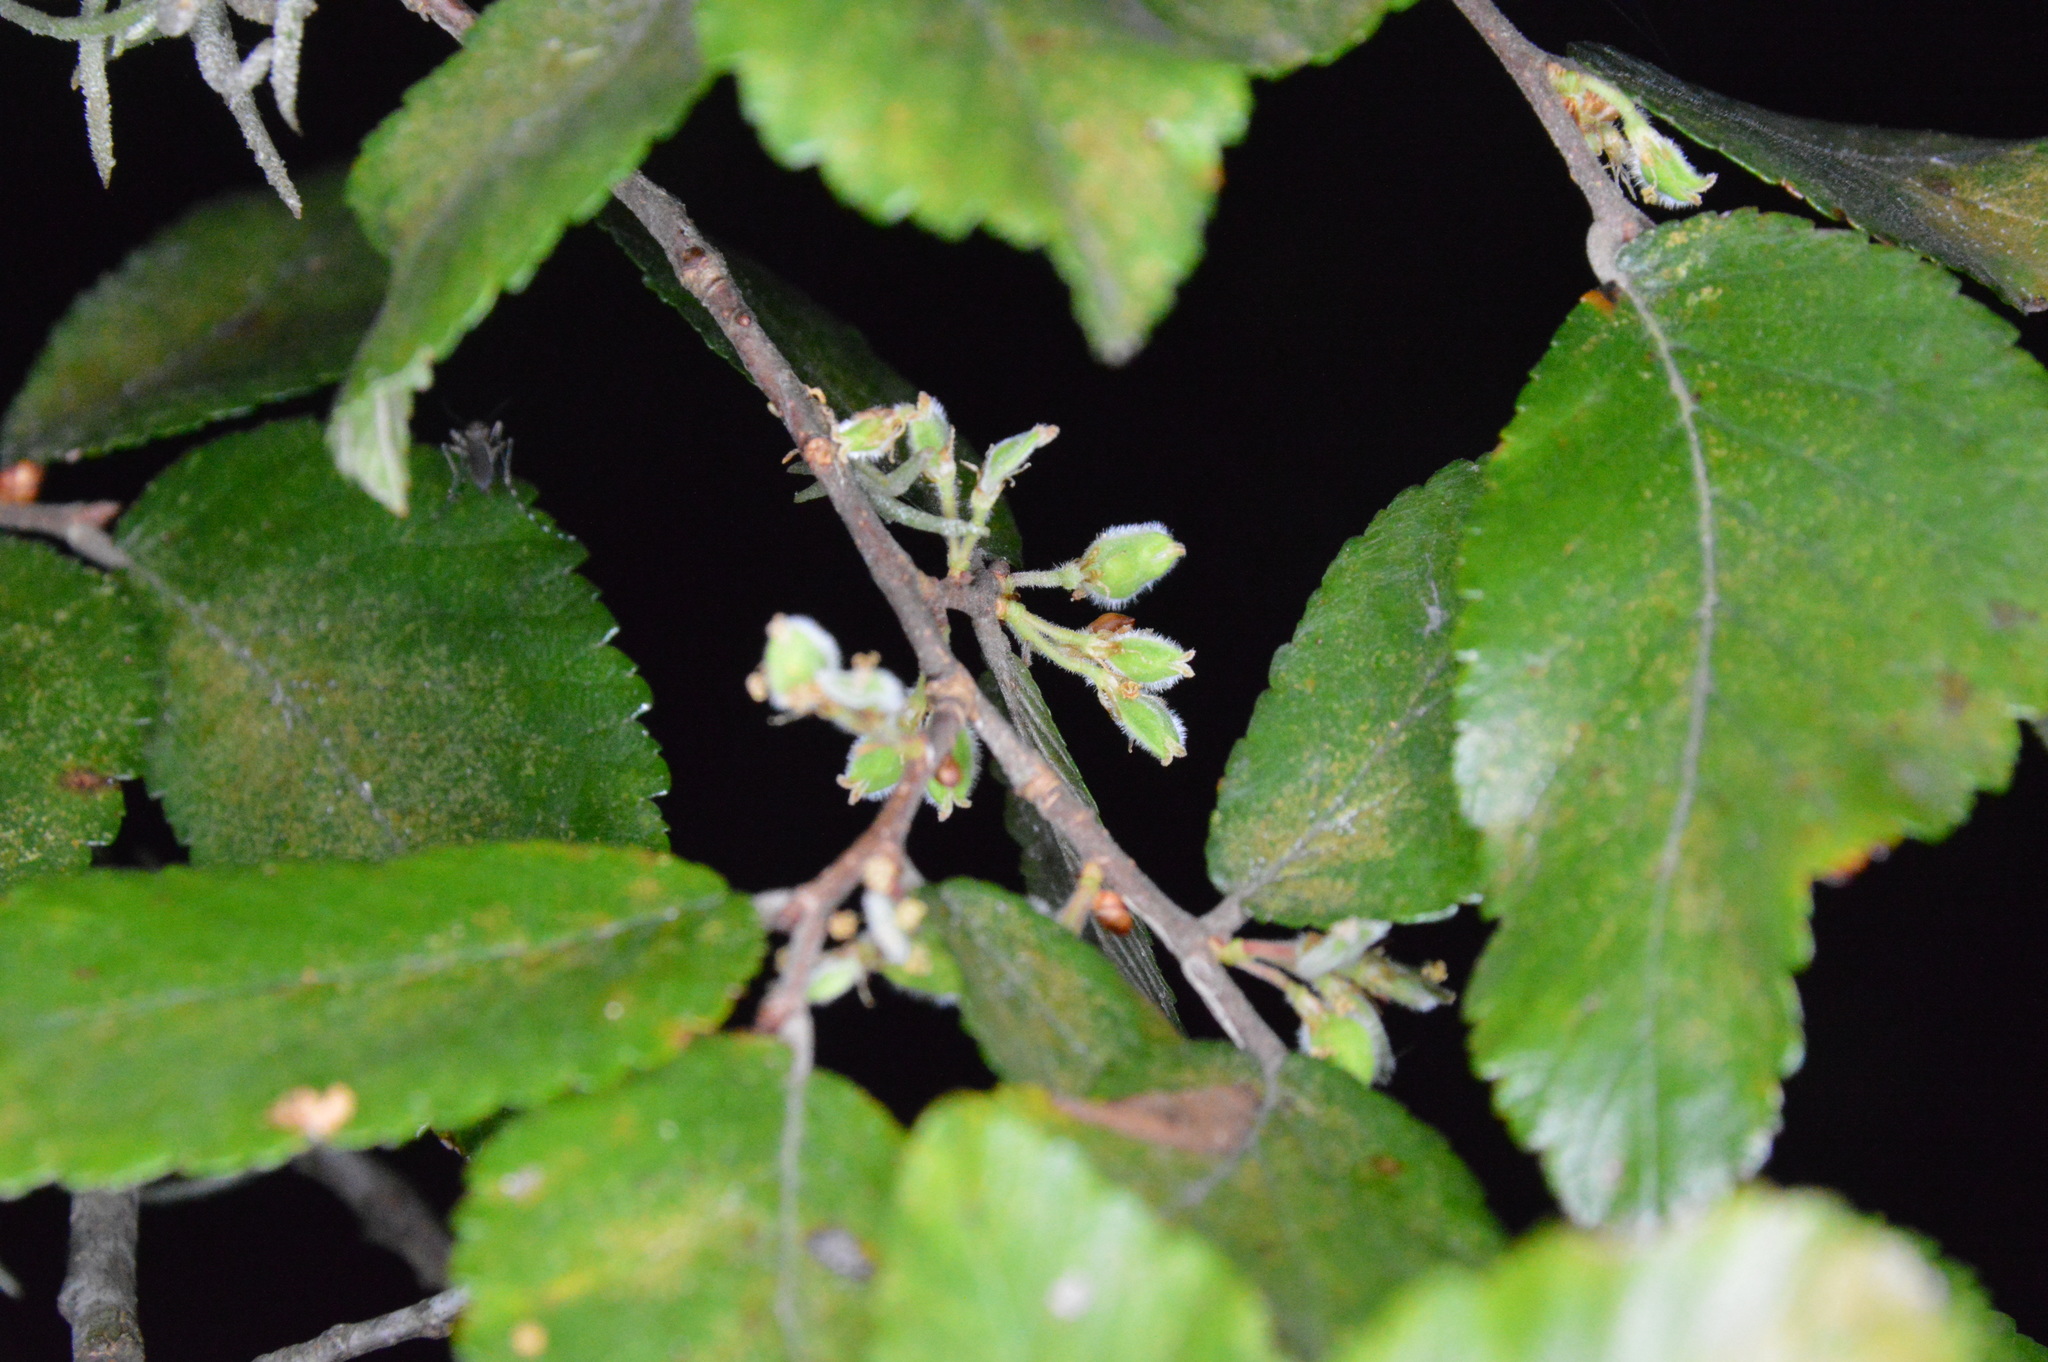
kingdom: Plantae
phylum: Tracheophyta
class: Magnoliopsida
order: Rosales
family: Ulmaceae
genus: Ulmus
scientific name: Ulmus crassifolia
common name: Basket elm
